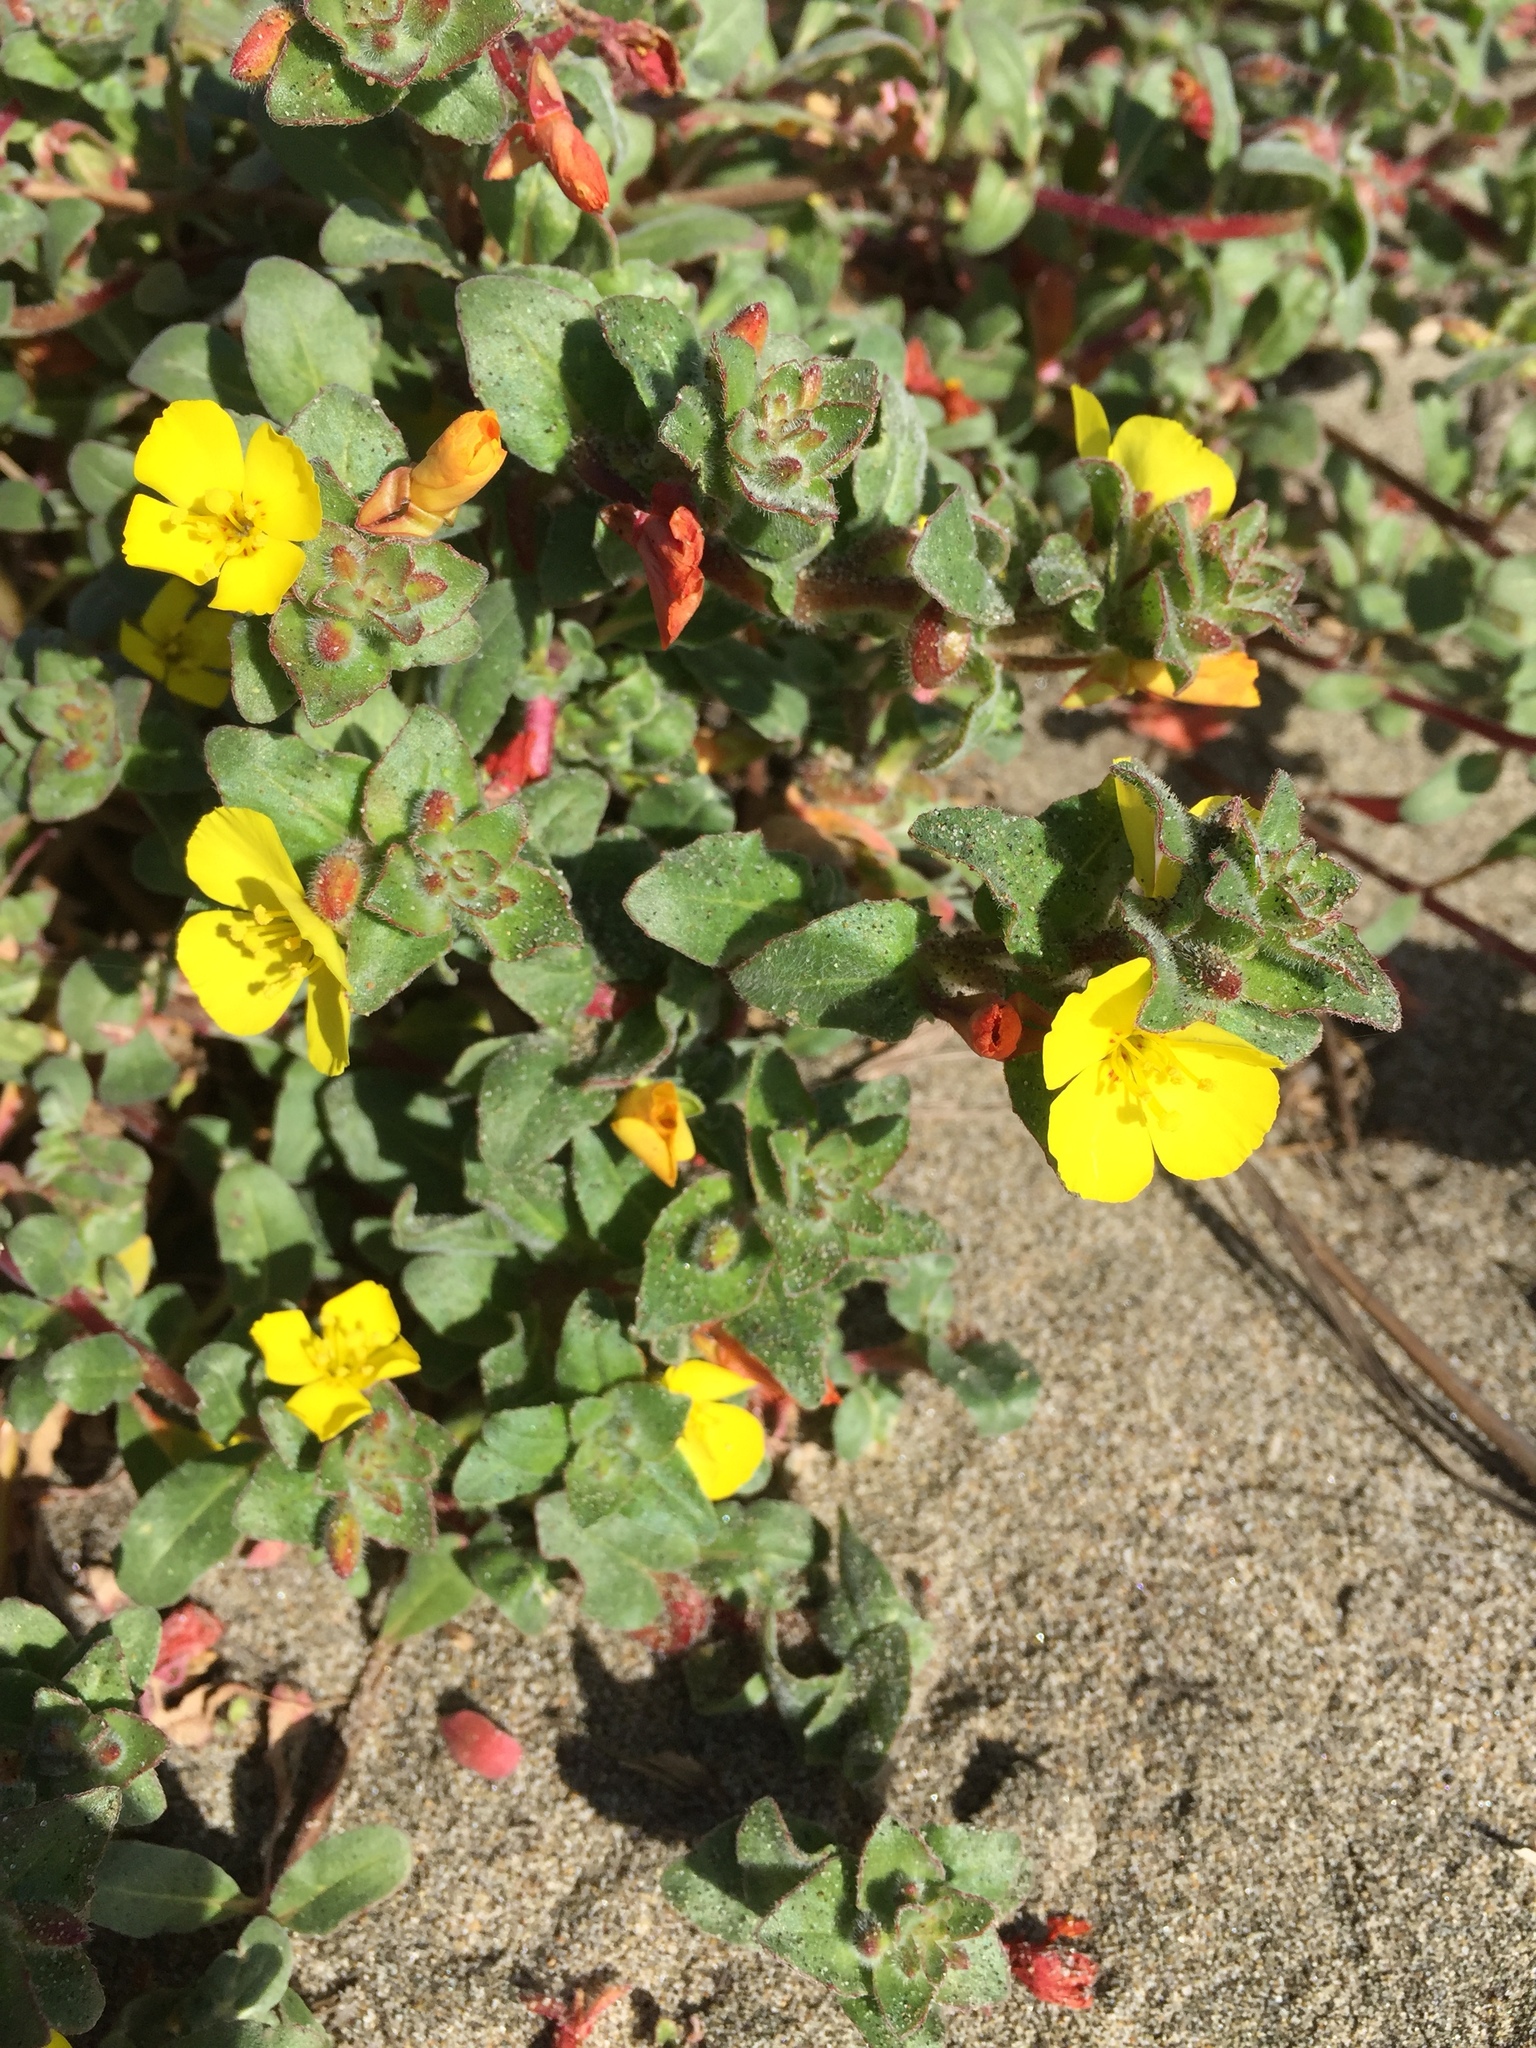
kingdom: Plantae
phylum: Tracheophyta
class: Magnoliopsida
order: Myrtales
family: Onagraceae
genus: Camissoniopsis
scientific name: Camissoniopsis cheiranthifolia
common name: Beach suncup
